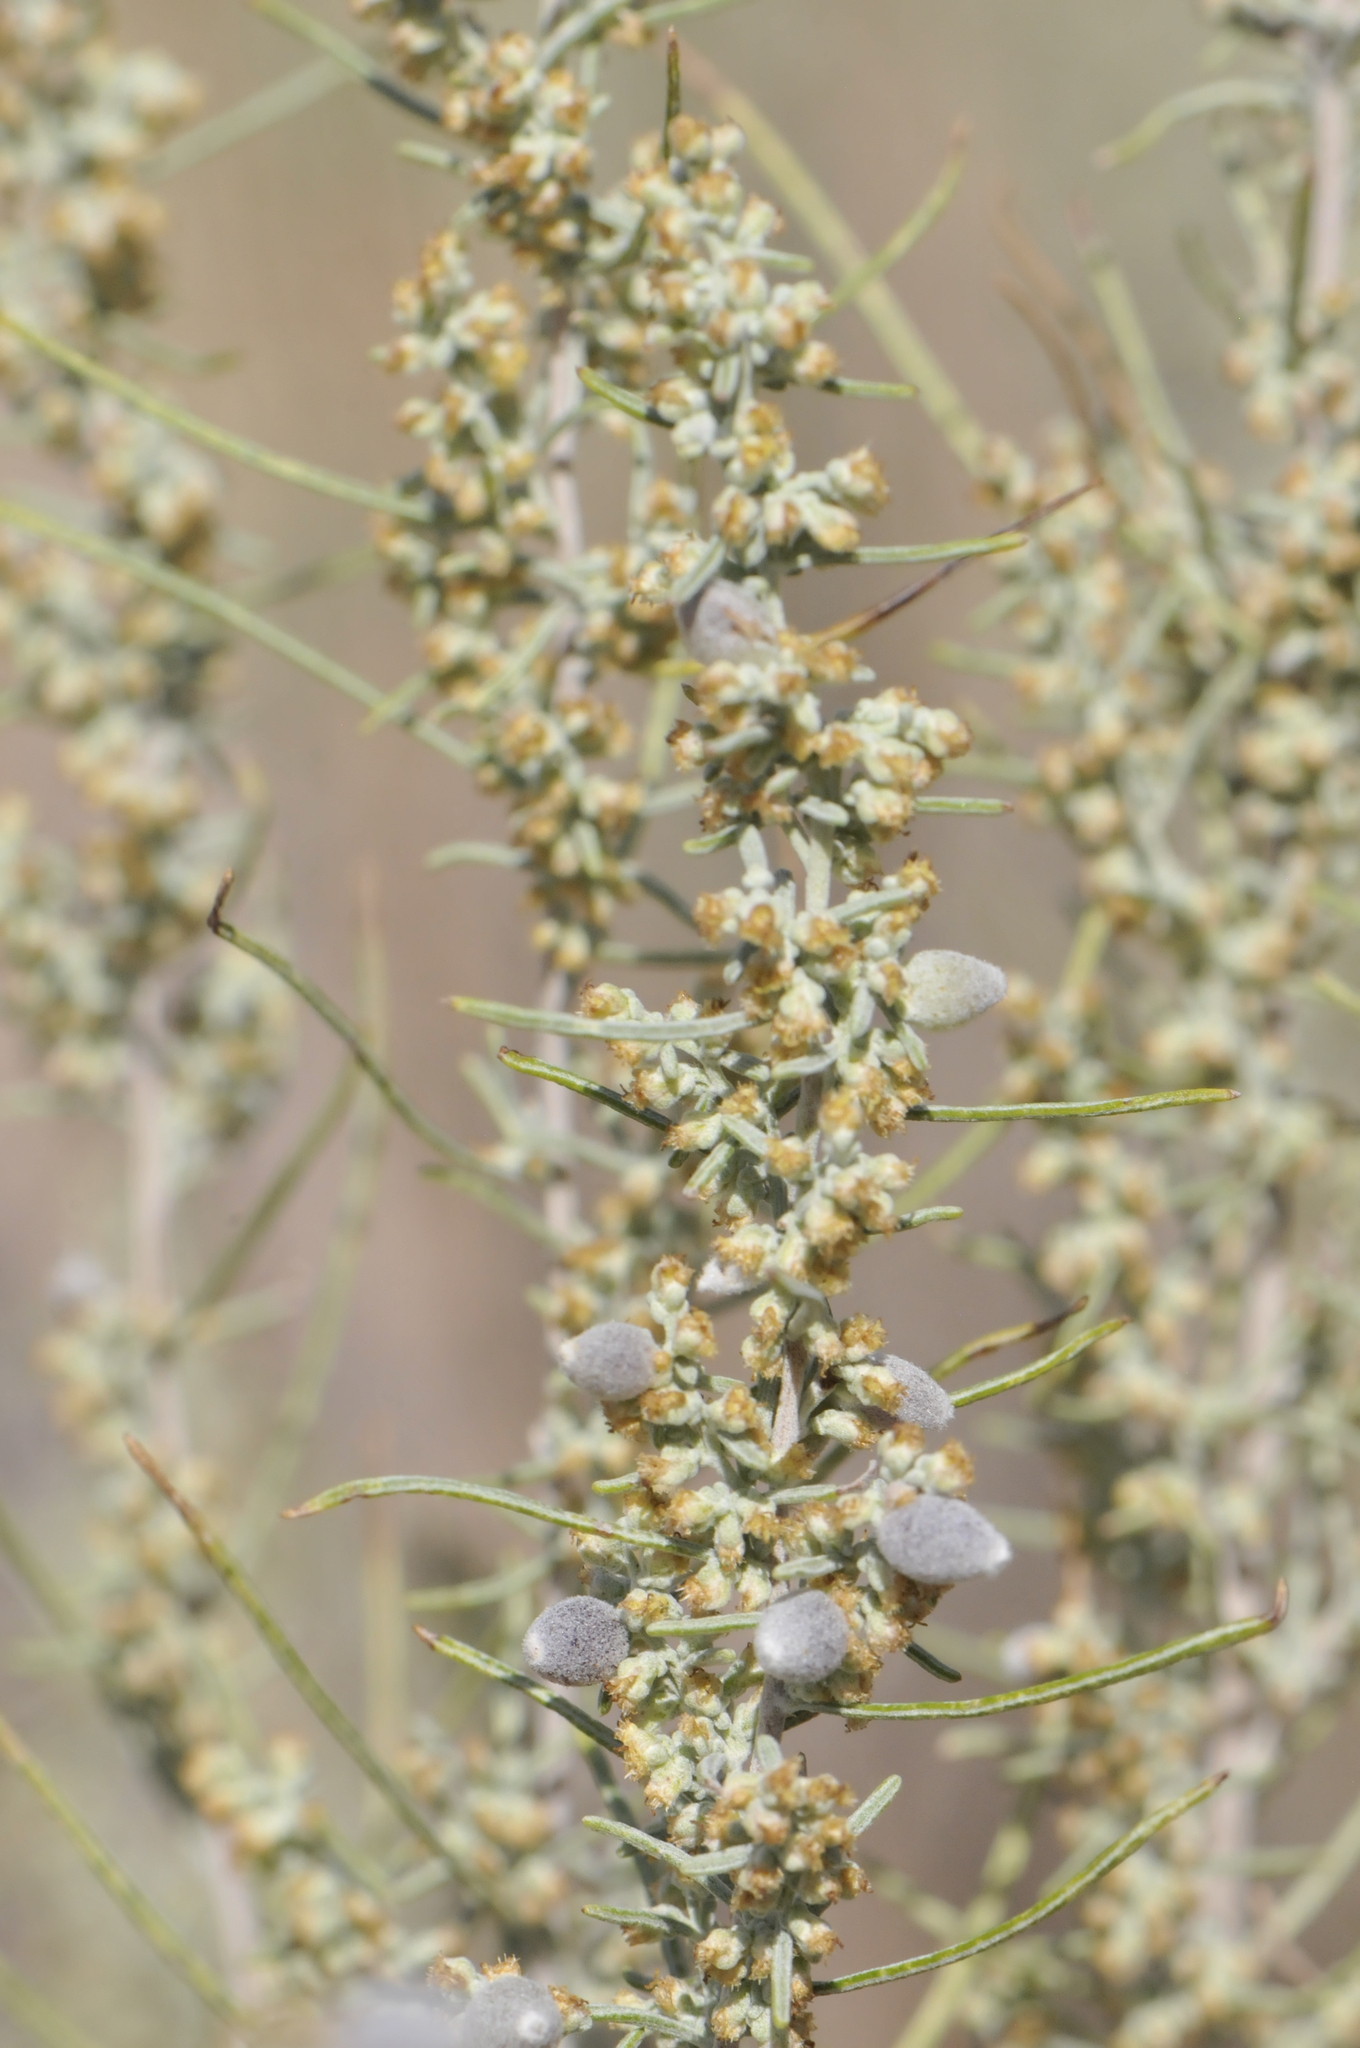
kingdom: Animalia
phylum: Arthropoda
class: Insecta
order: Diptera
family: Cecidomyiidae
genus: Rhopalomyia
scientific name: Rhopalomyia ampullaria
